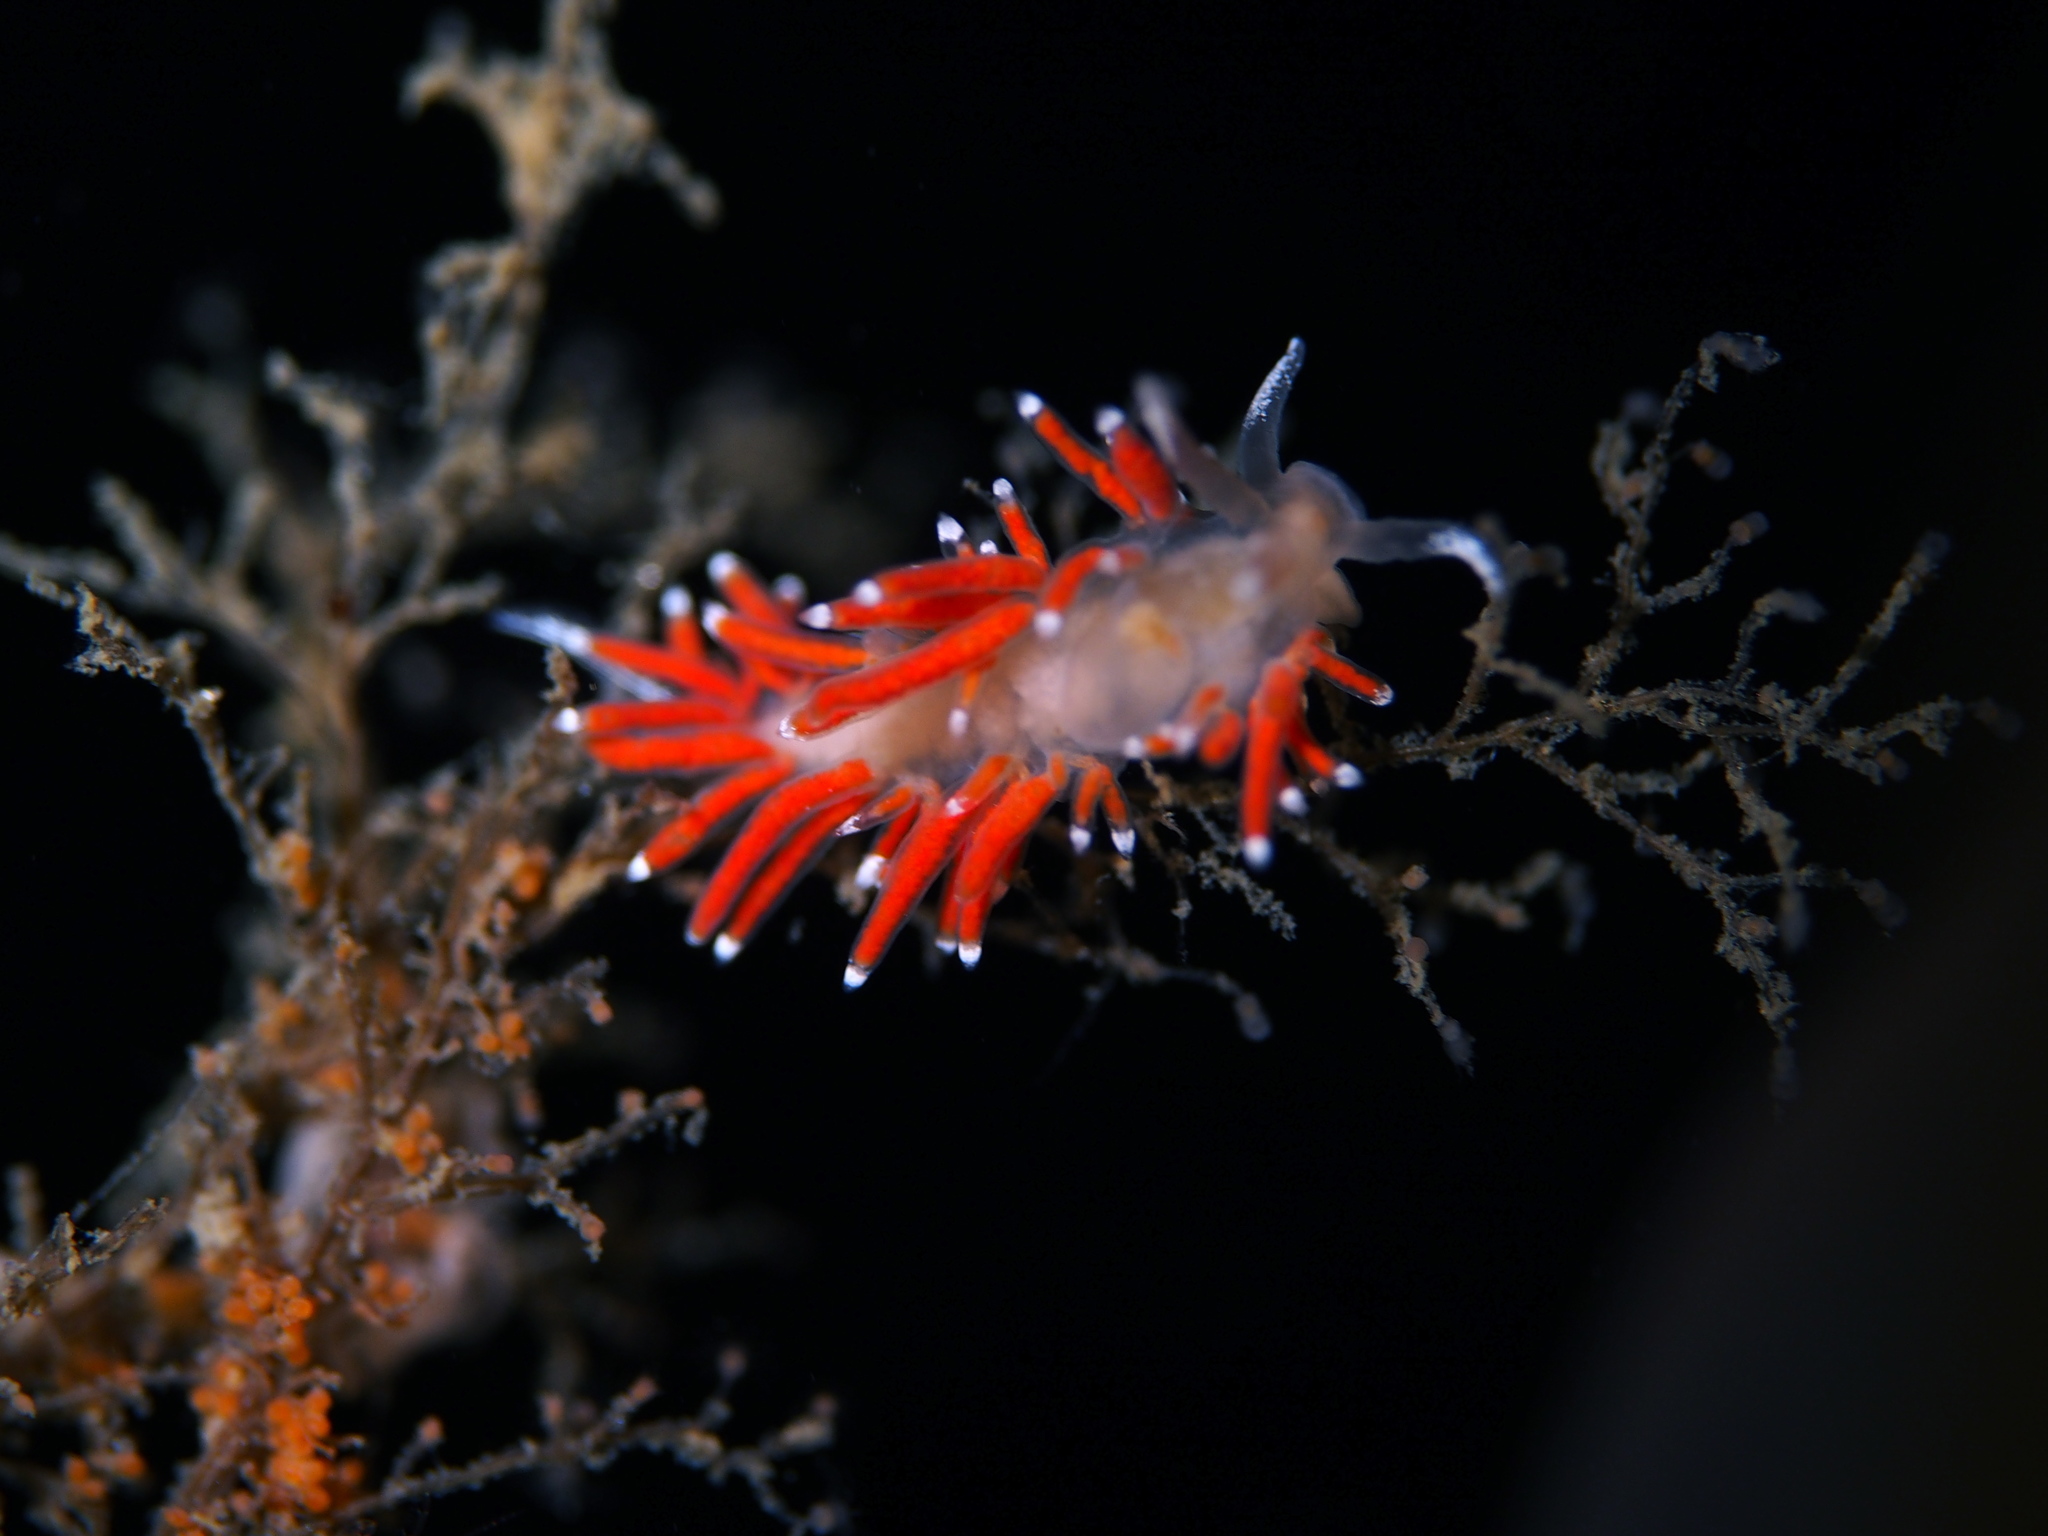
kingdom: Animalia
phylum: Mollusca
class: Gastropoda
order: Nudibranchia
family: Coryphellidae
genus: Coryphella
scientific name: Coryphella gracilis
